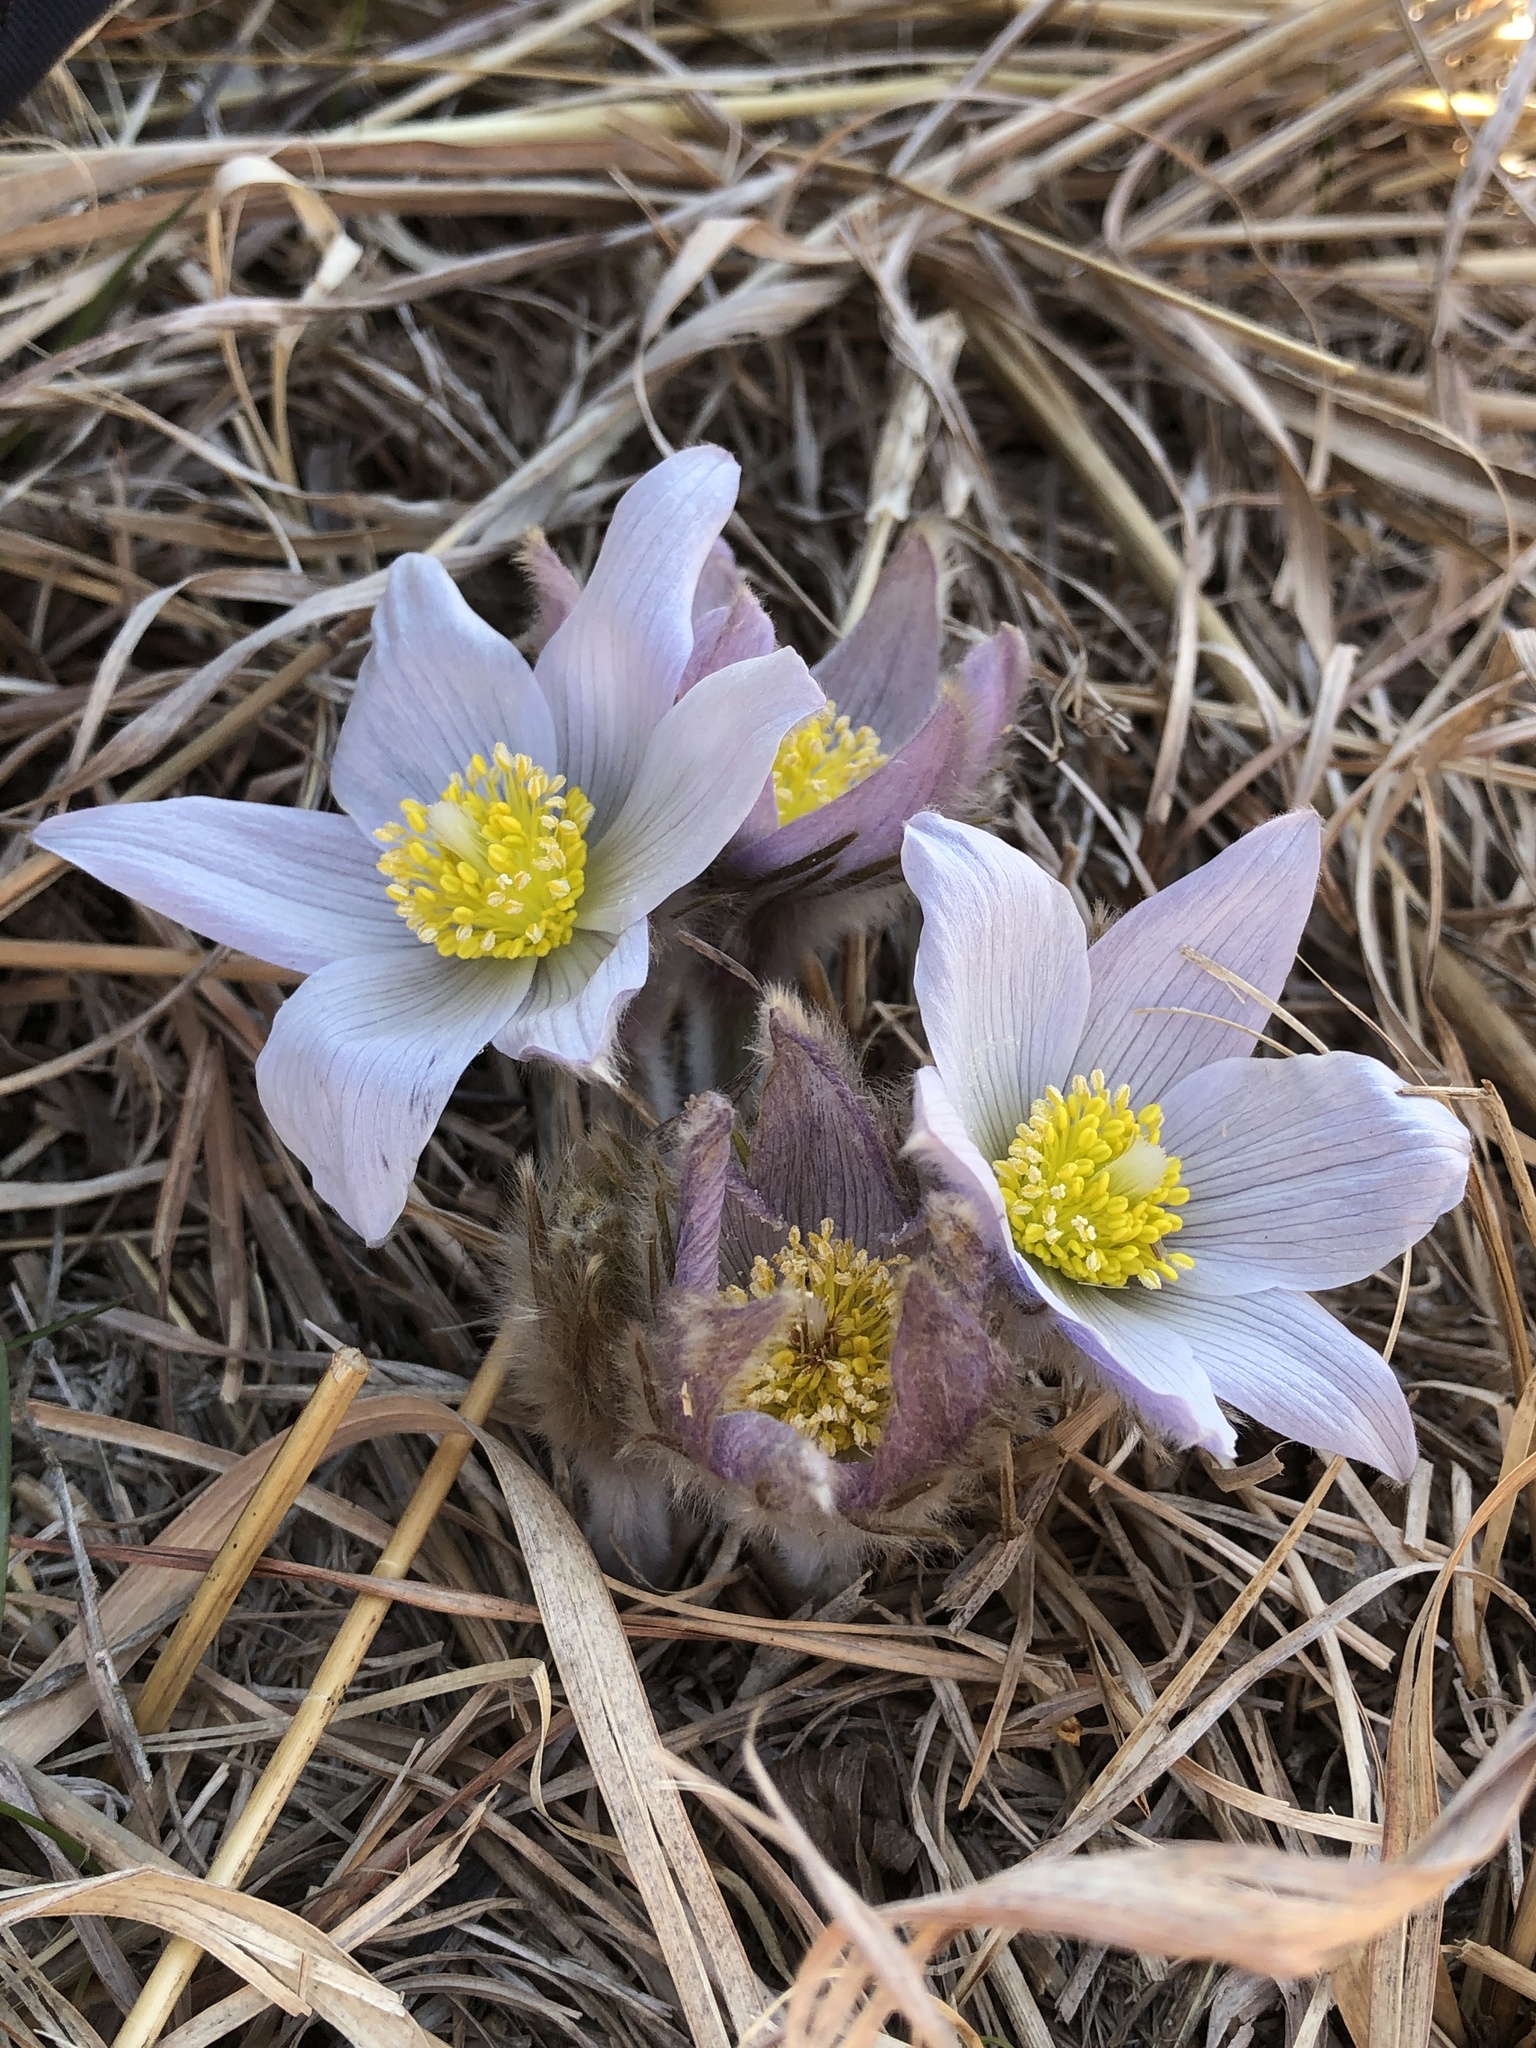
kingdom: Plantae
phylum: Tracheophyta
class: Magnoliopsida
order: Ranunculales
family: Ranunculaceae
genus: Pulsatilla
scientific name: Pulsatilla nuttalliana
